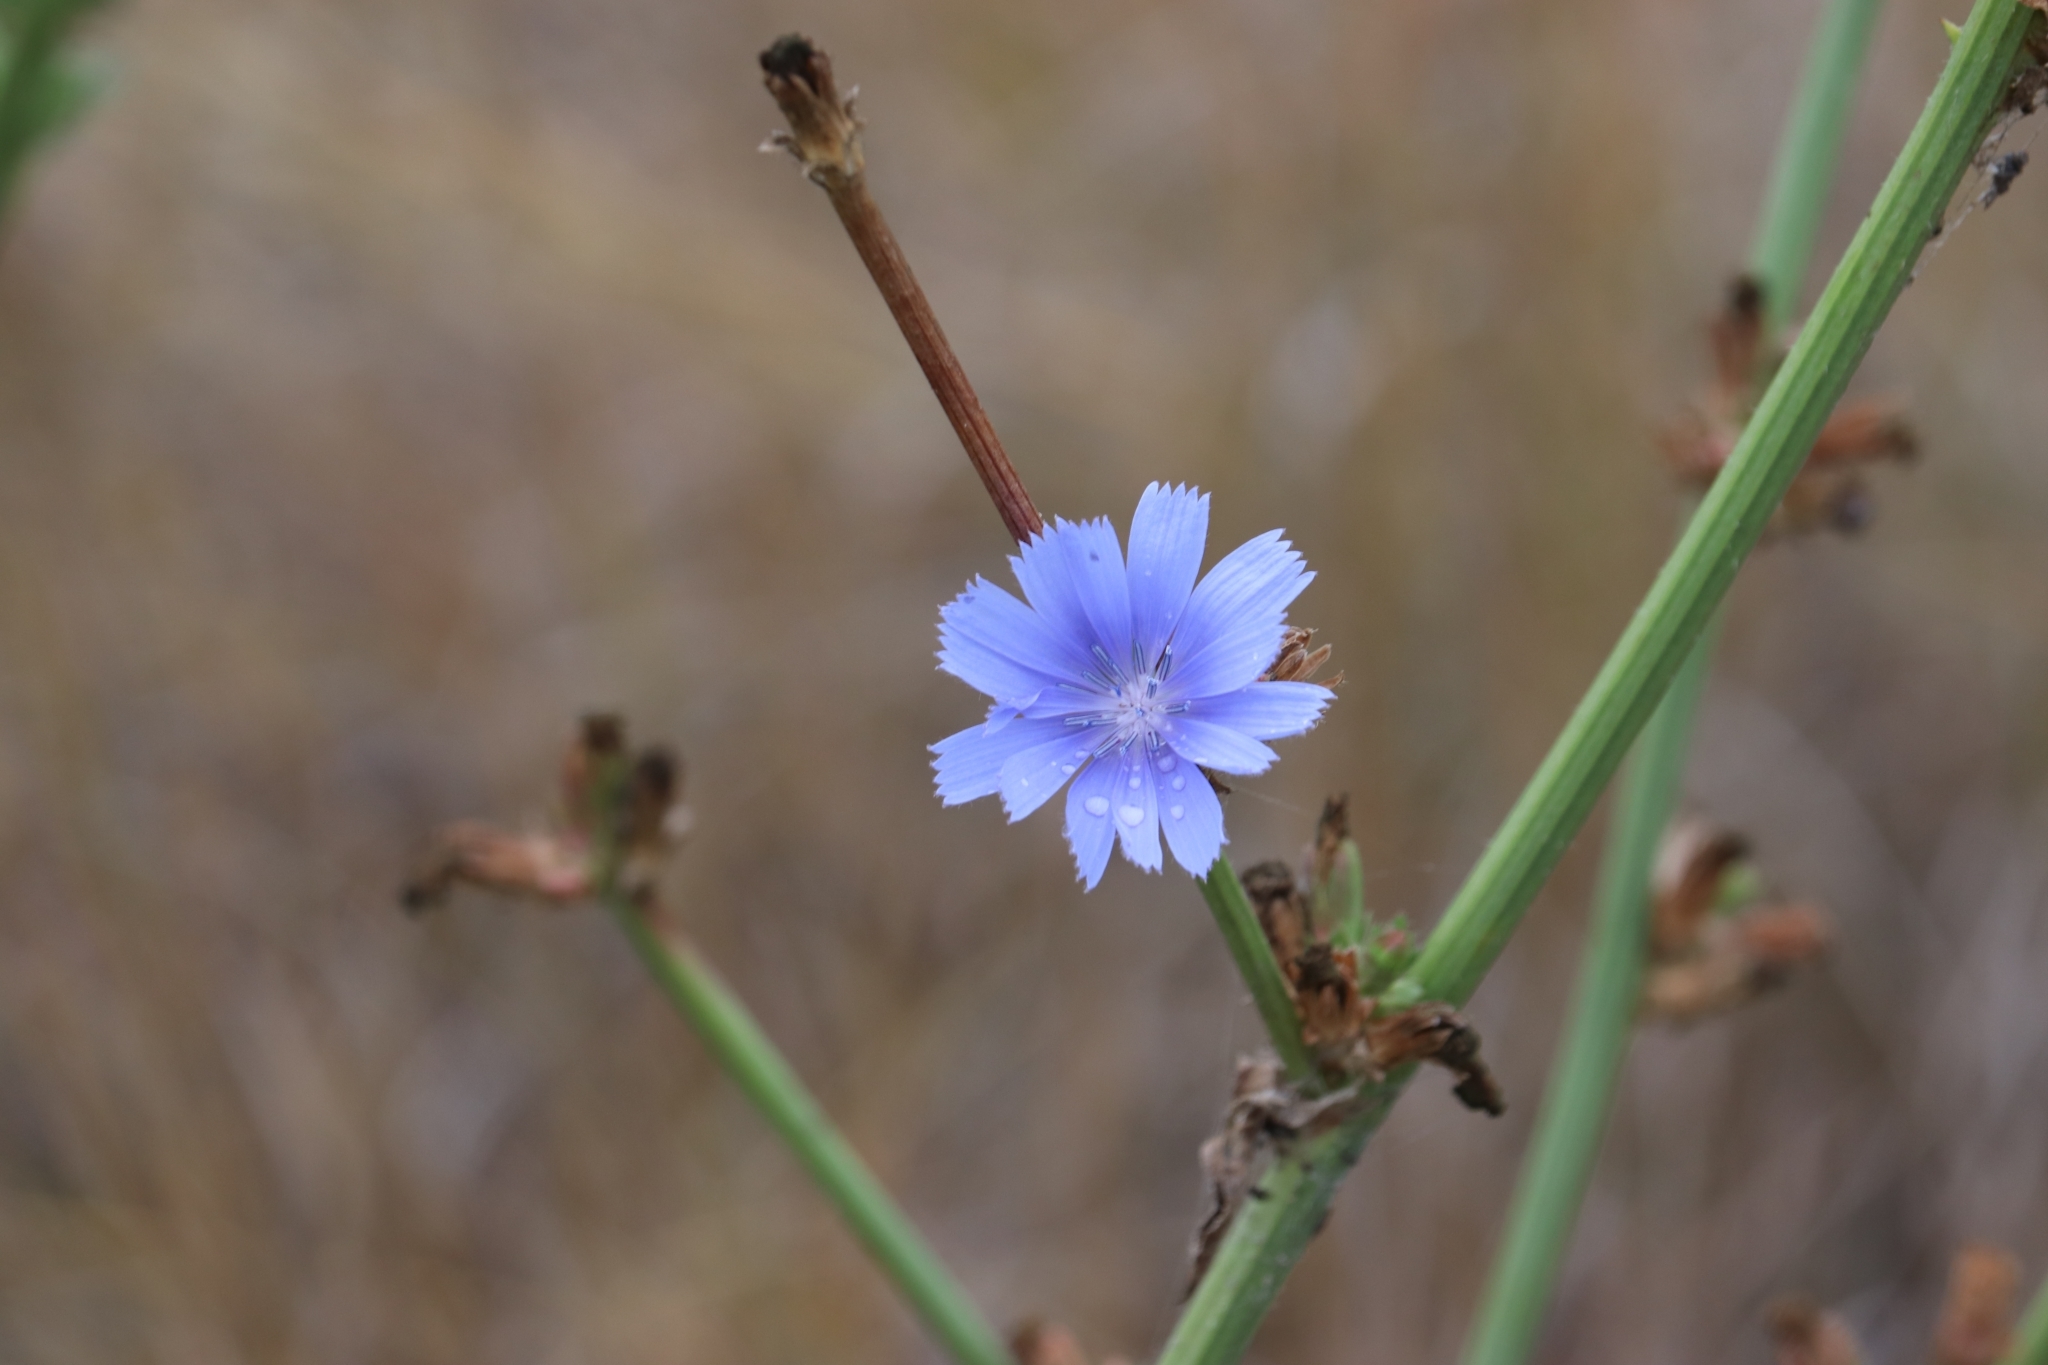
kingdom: Plantae
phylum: Tracheophyta
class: Magnoliopsida
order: Asterales
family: Asteraceae
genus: Cichorium
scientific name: Cichorium intybus
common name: Chicory
